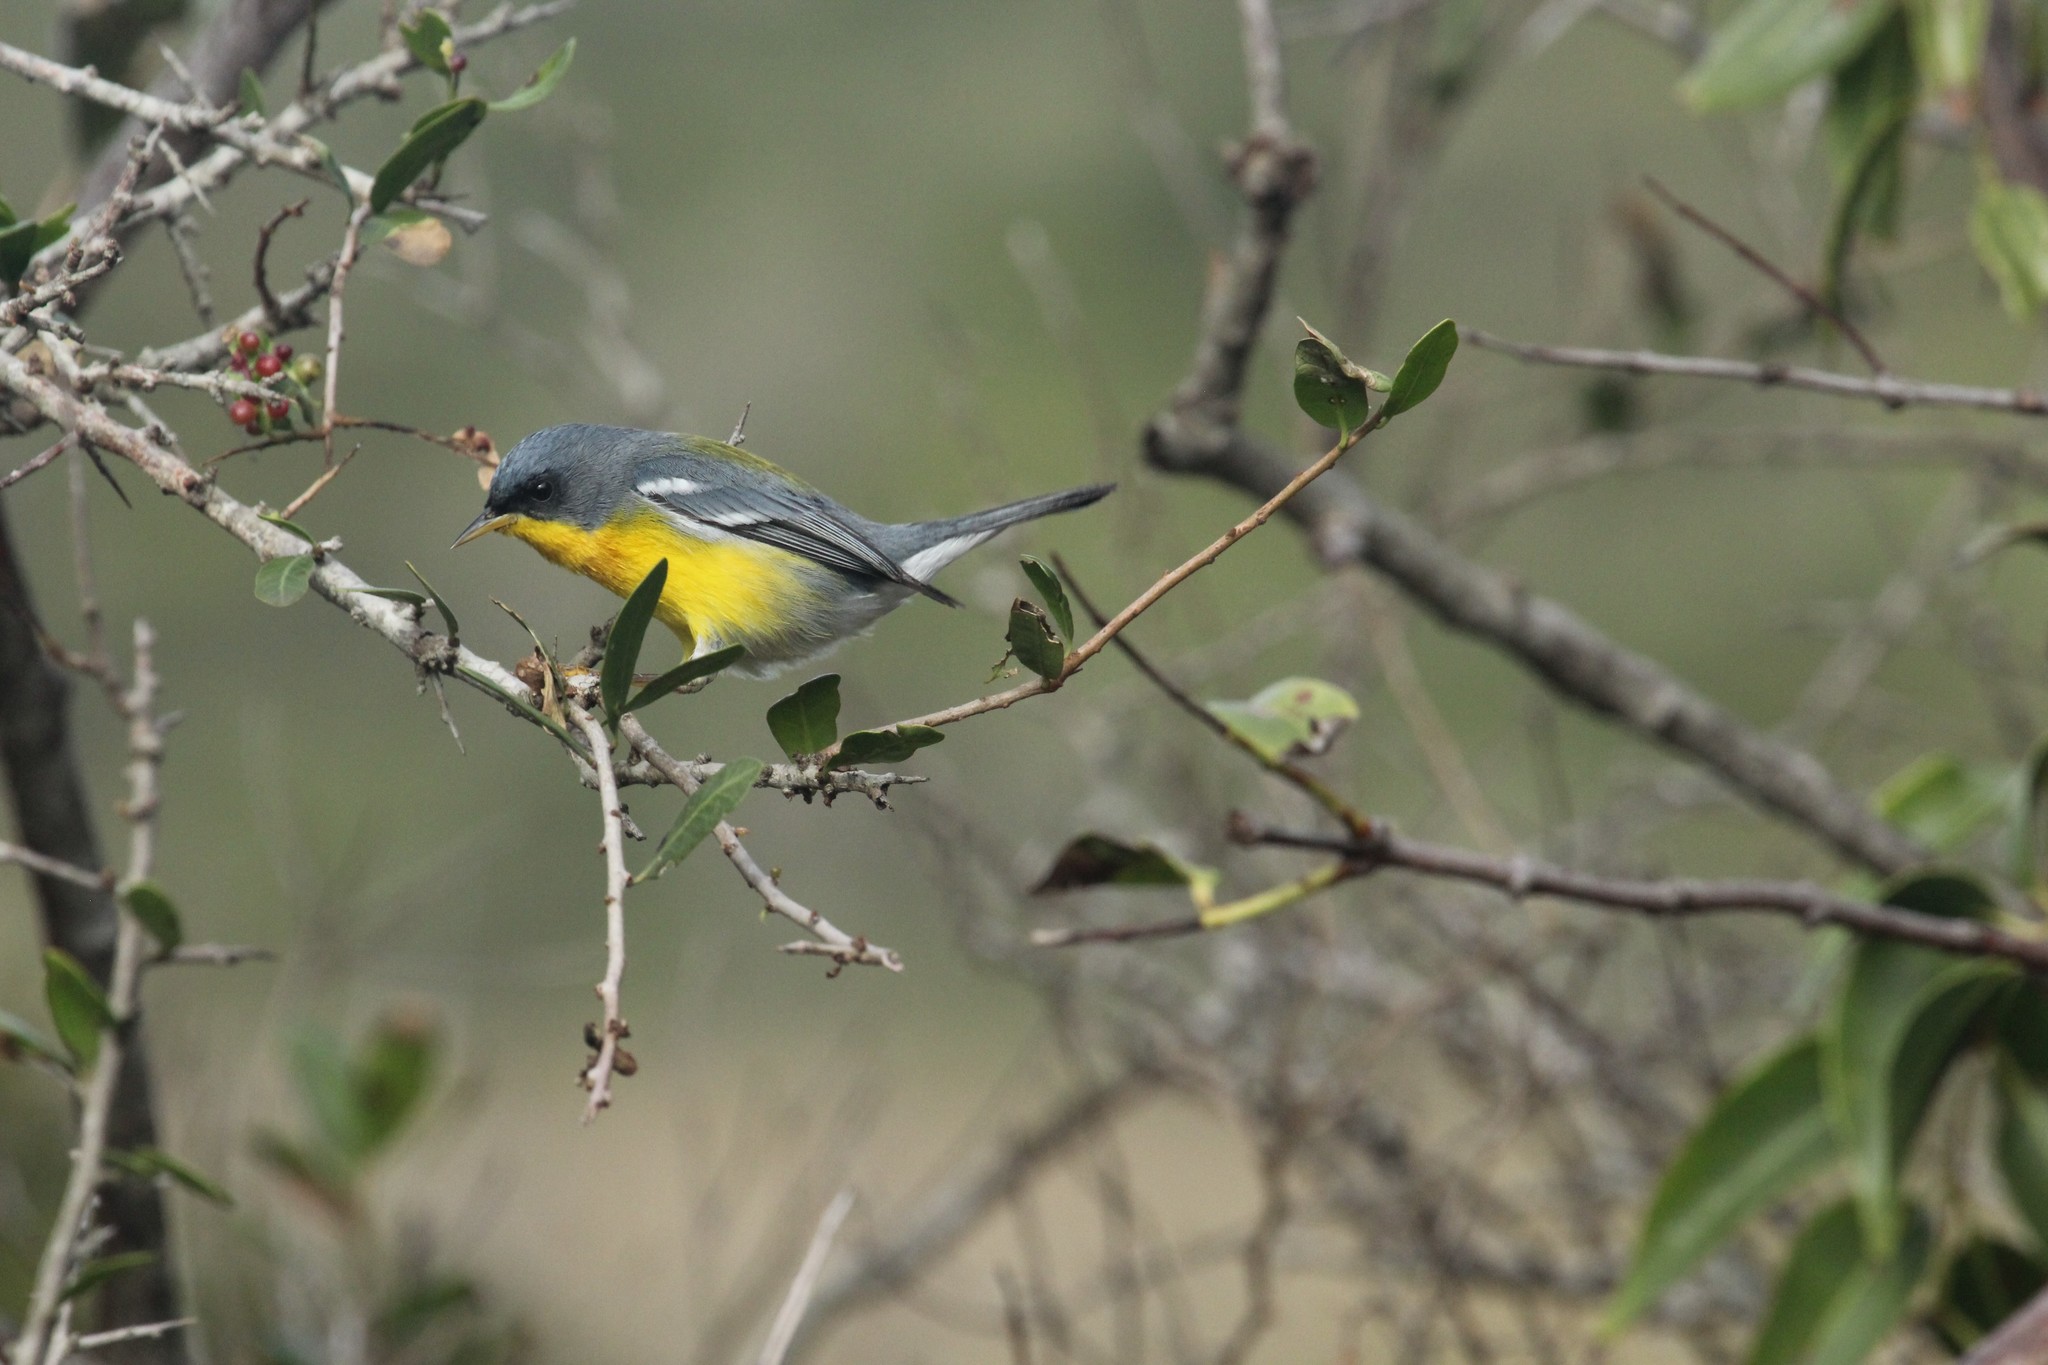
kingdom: Animalia
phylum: Chordata
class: Aves
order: Passeriformes
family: Parulidae
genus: Setophaga
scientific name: Setophaga pitiayumi
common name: Tropical parula
